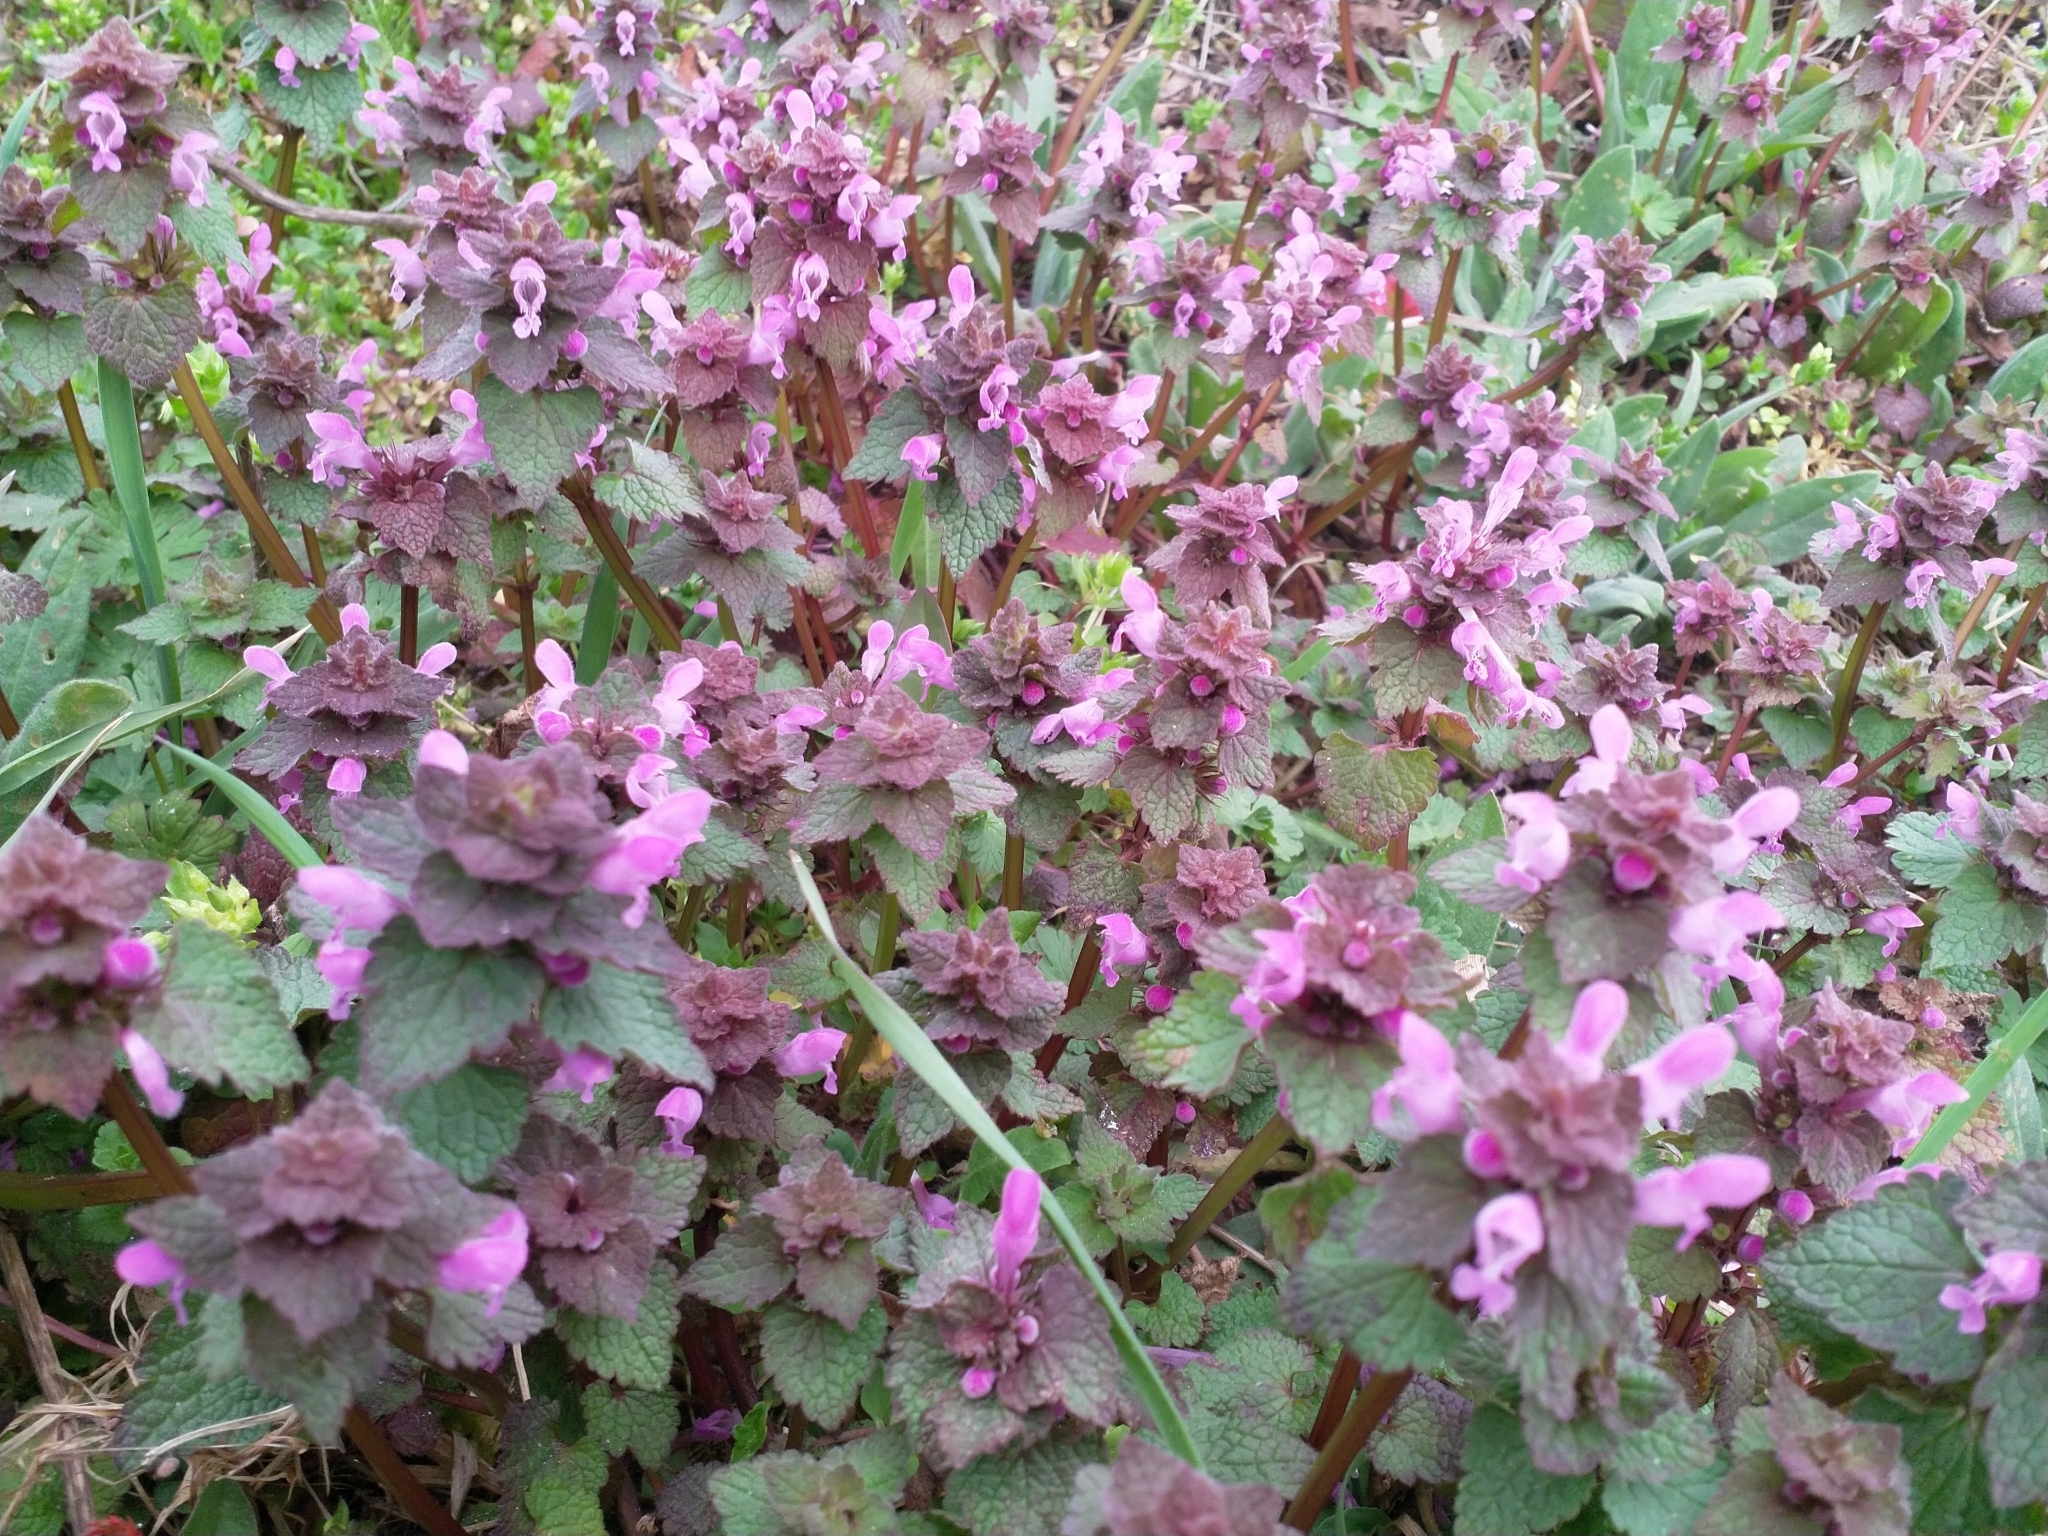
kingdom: Plantae
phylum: Tracheophyta
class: Magnoliopsida
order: Lamiales
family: Lamiaceae
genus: Lamium
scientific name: Lamium purpureum
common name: Red dead-nettle
